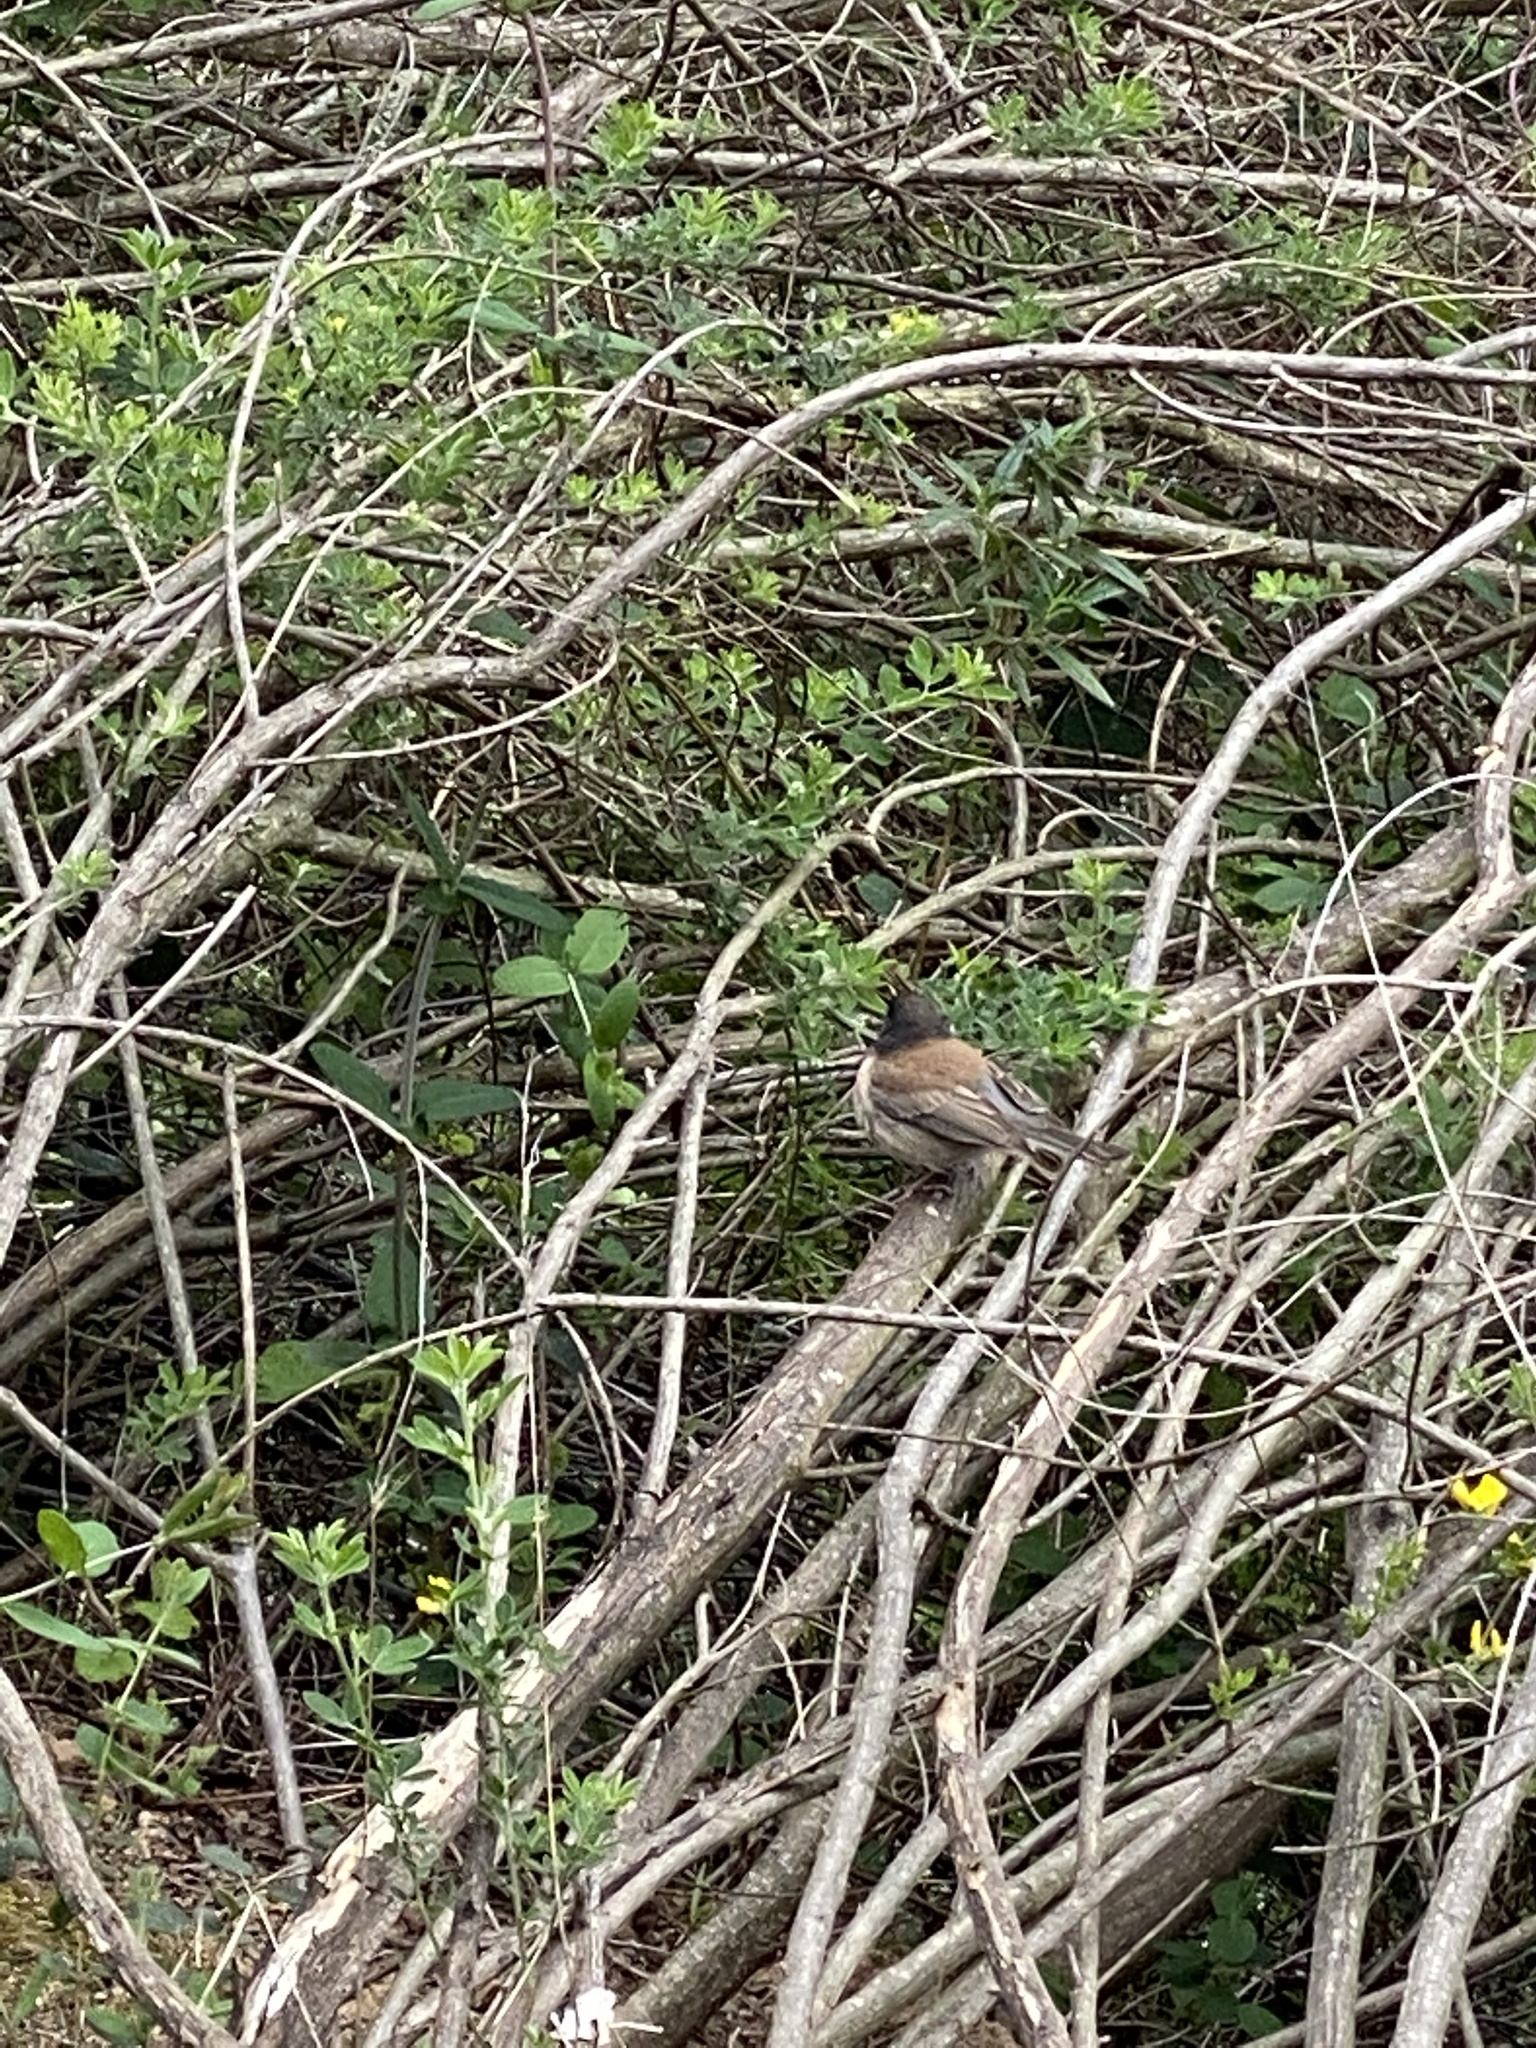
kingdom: Animalia
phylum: Chordata
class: Aves
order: Passeriformes
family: Passerellidae
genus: Junco
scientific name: Junco hyemalis
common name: Dark-eyed junco
